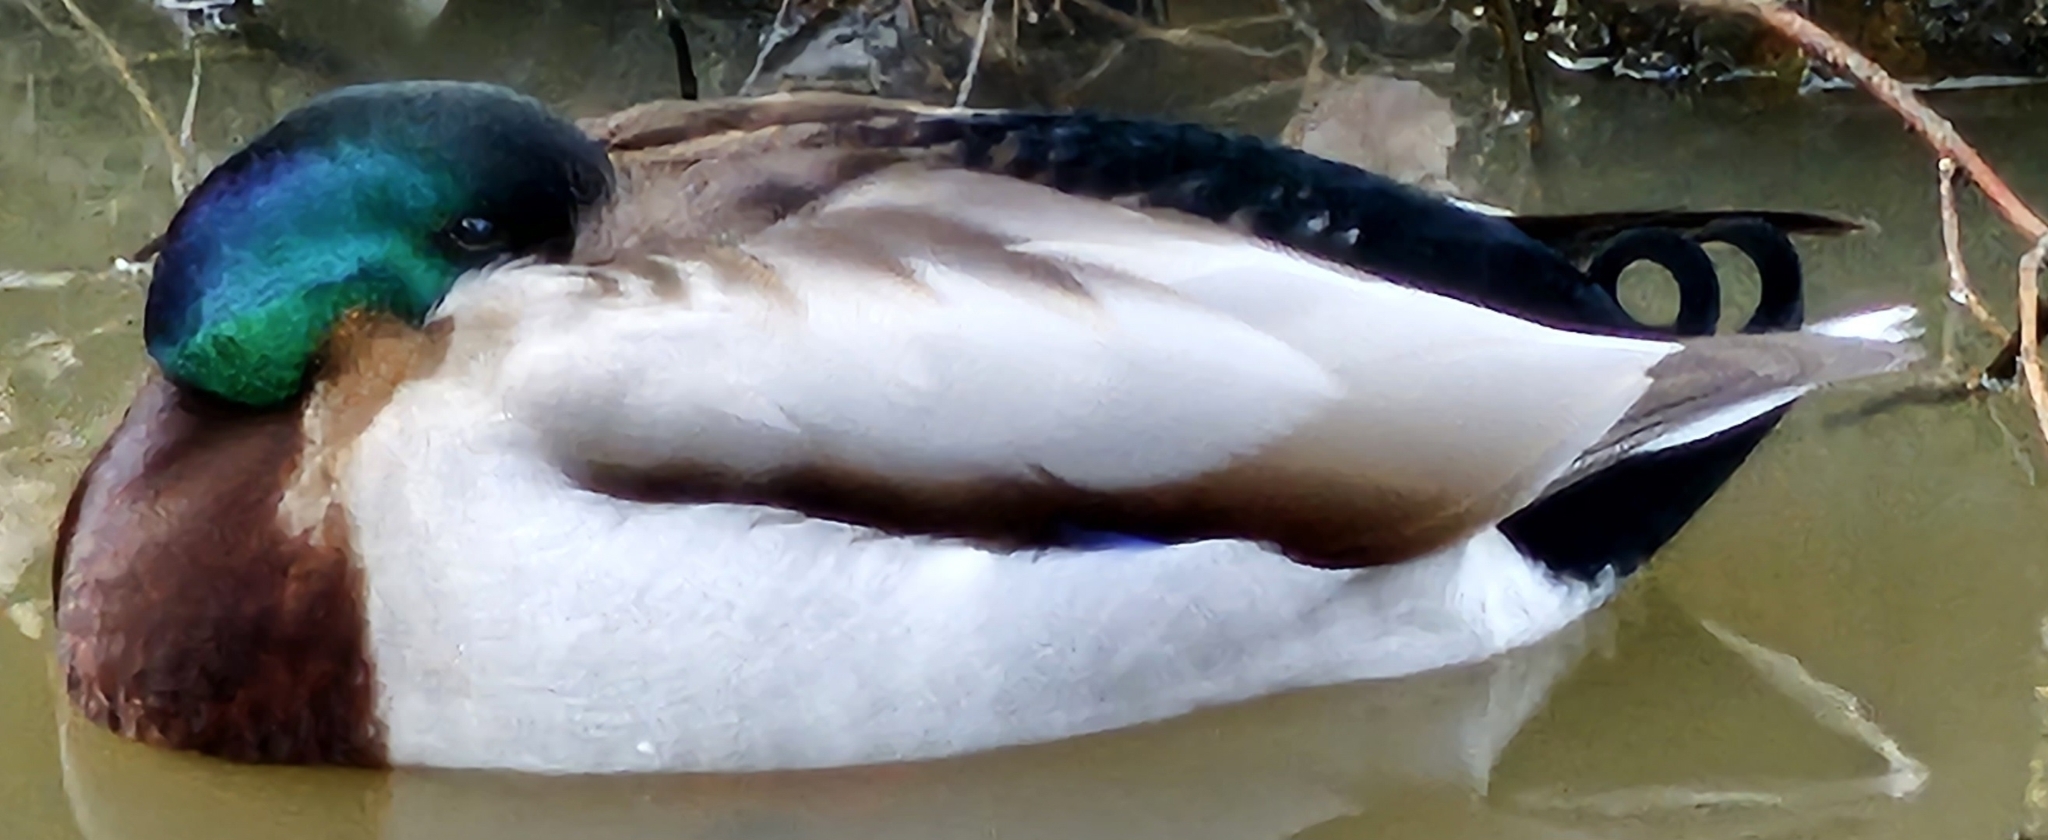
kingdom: Animalia
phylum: Chordata
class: Aves
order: Anseriformes
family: Anatidae
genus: Anas
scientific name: Anas platyrhynchos
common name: Mallard
